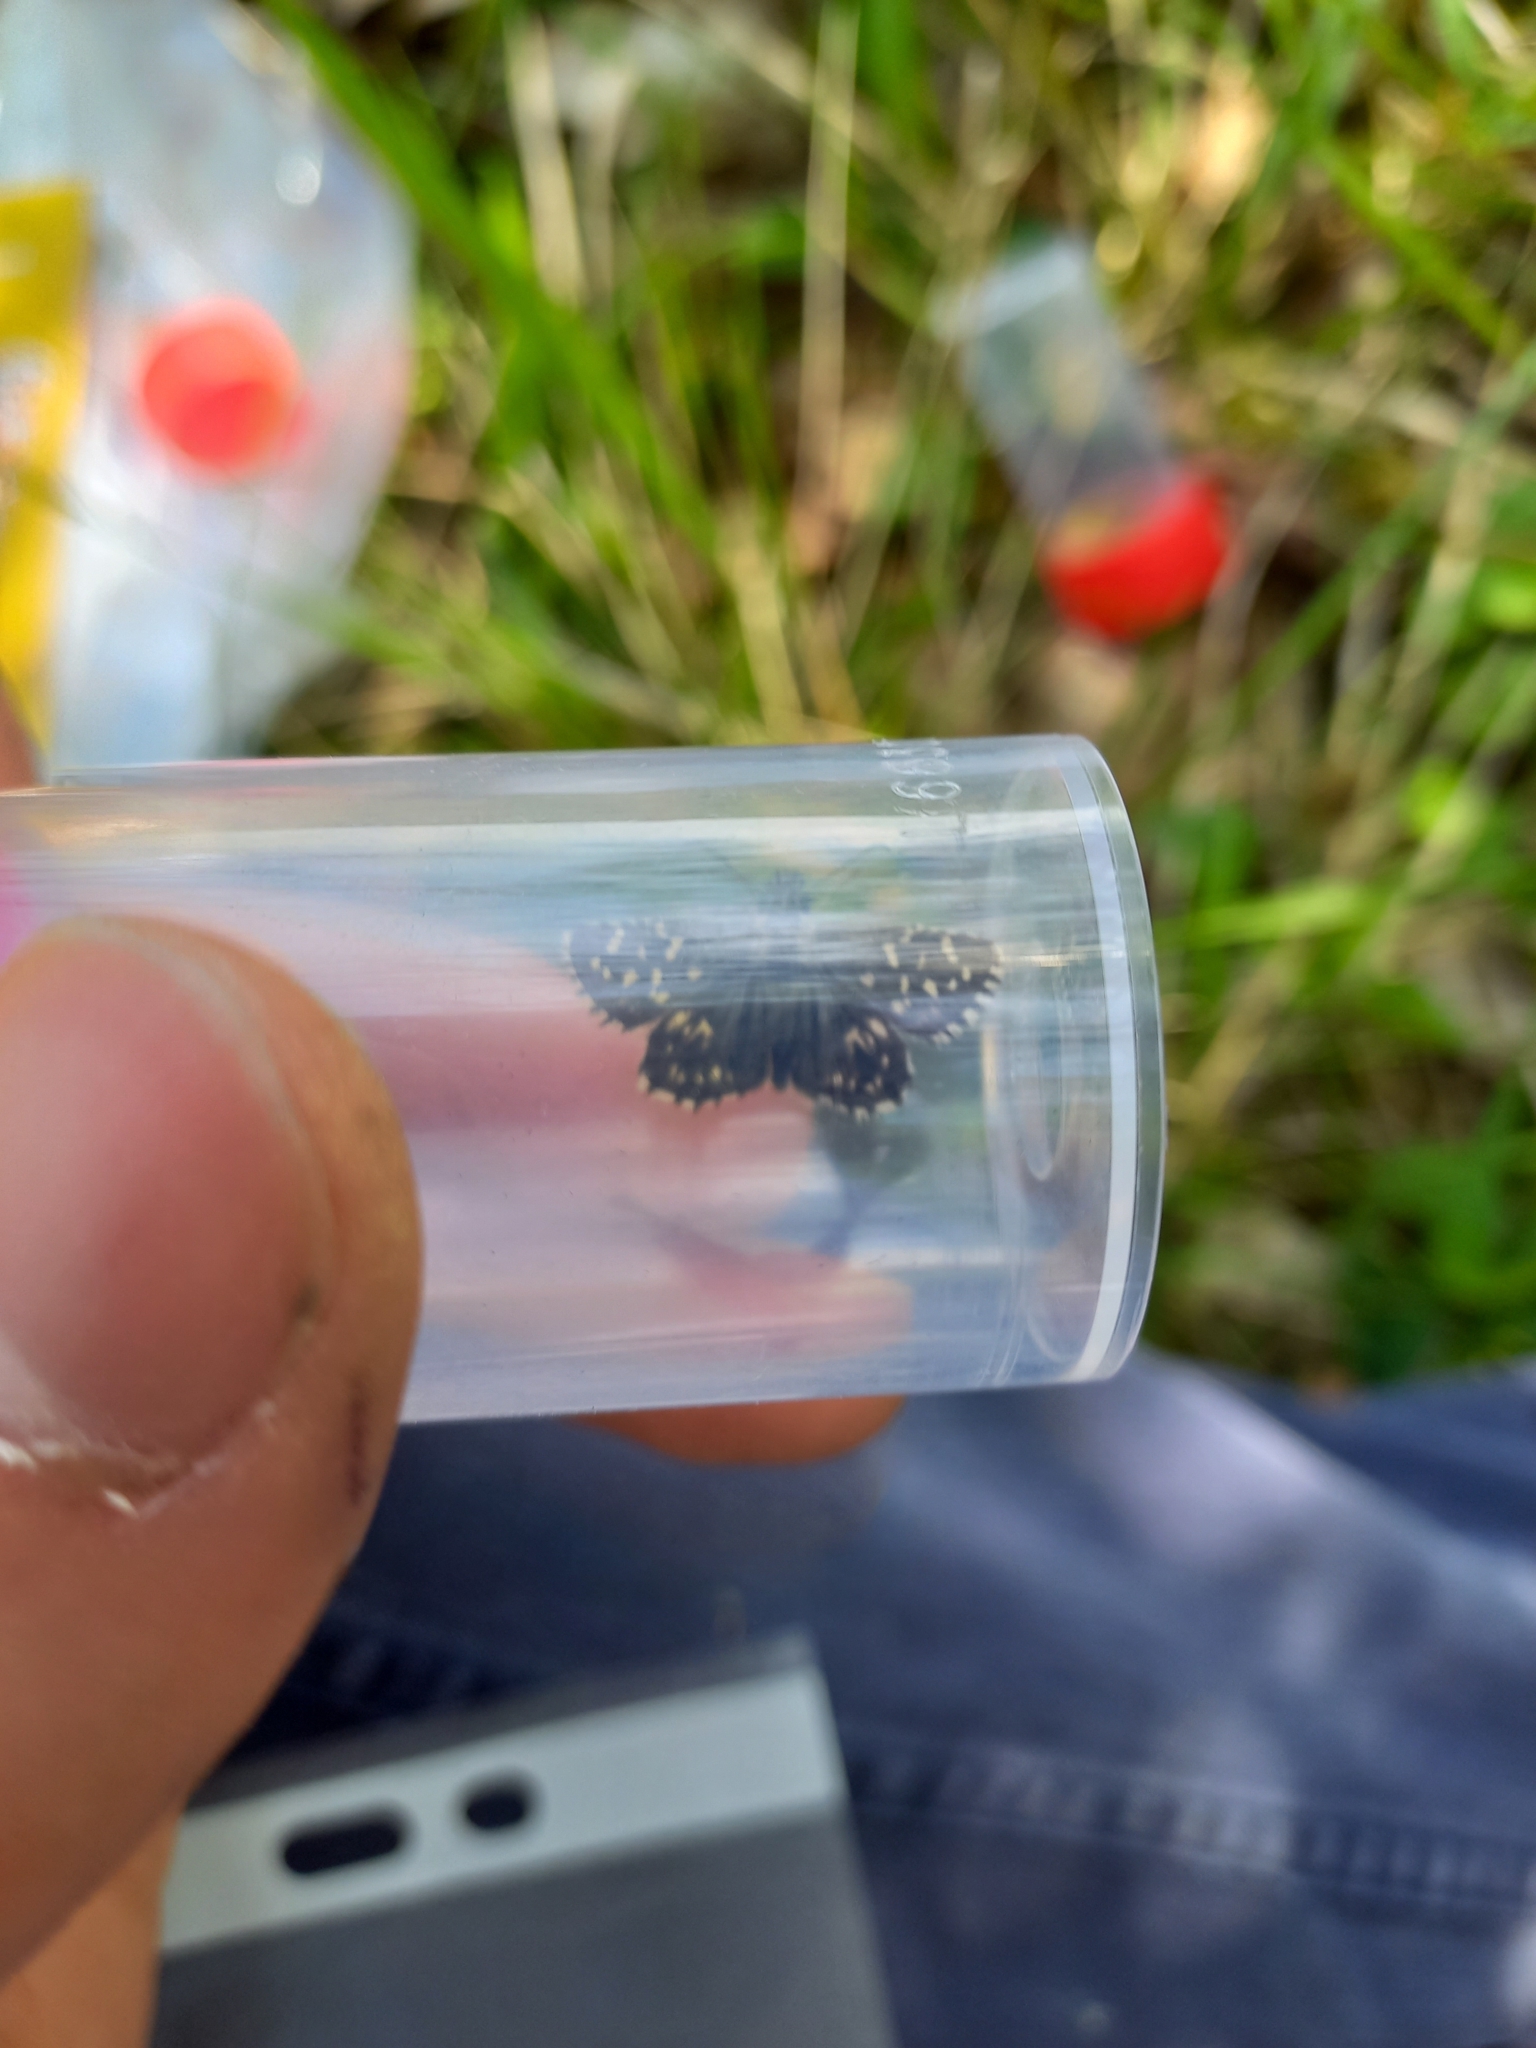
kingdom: Animalia
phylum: Arthropoda
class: Insecta
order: Lepidoptera
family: Hesperiidae
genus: Pyrgus
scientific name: Pyrgus malvae
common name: Grizzled skipper
